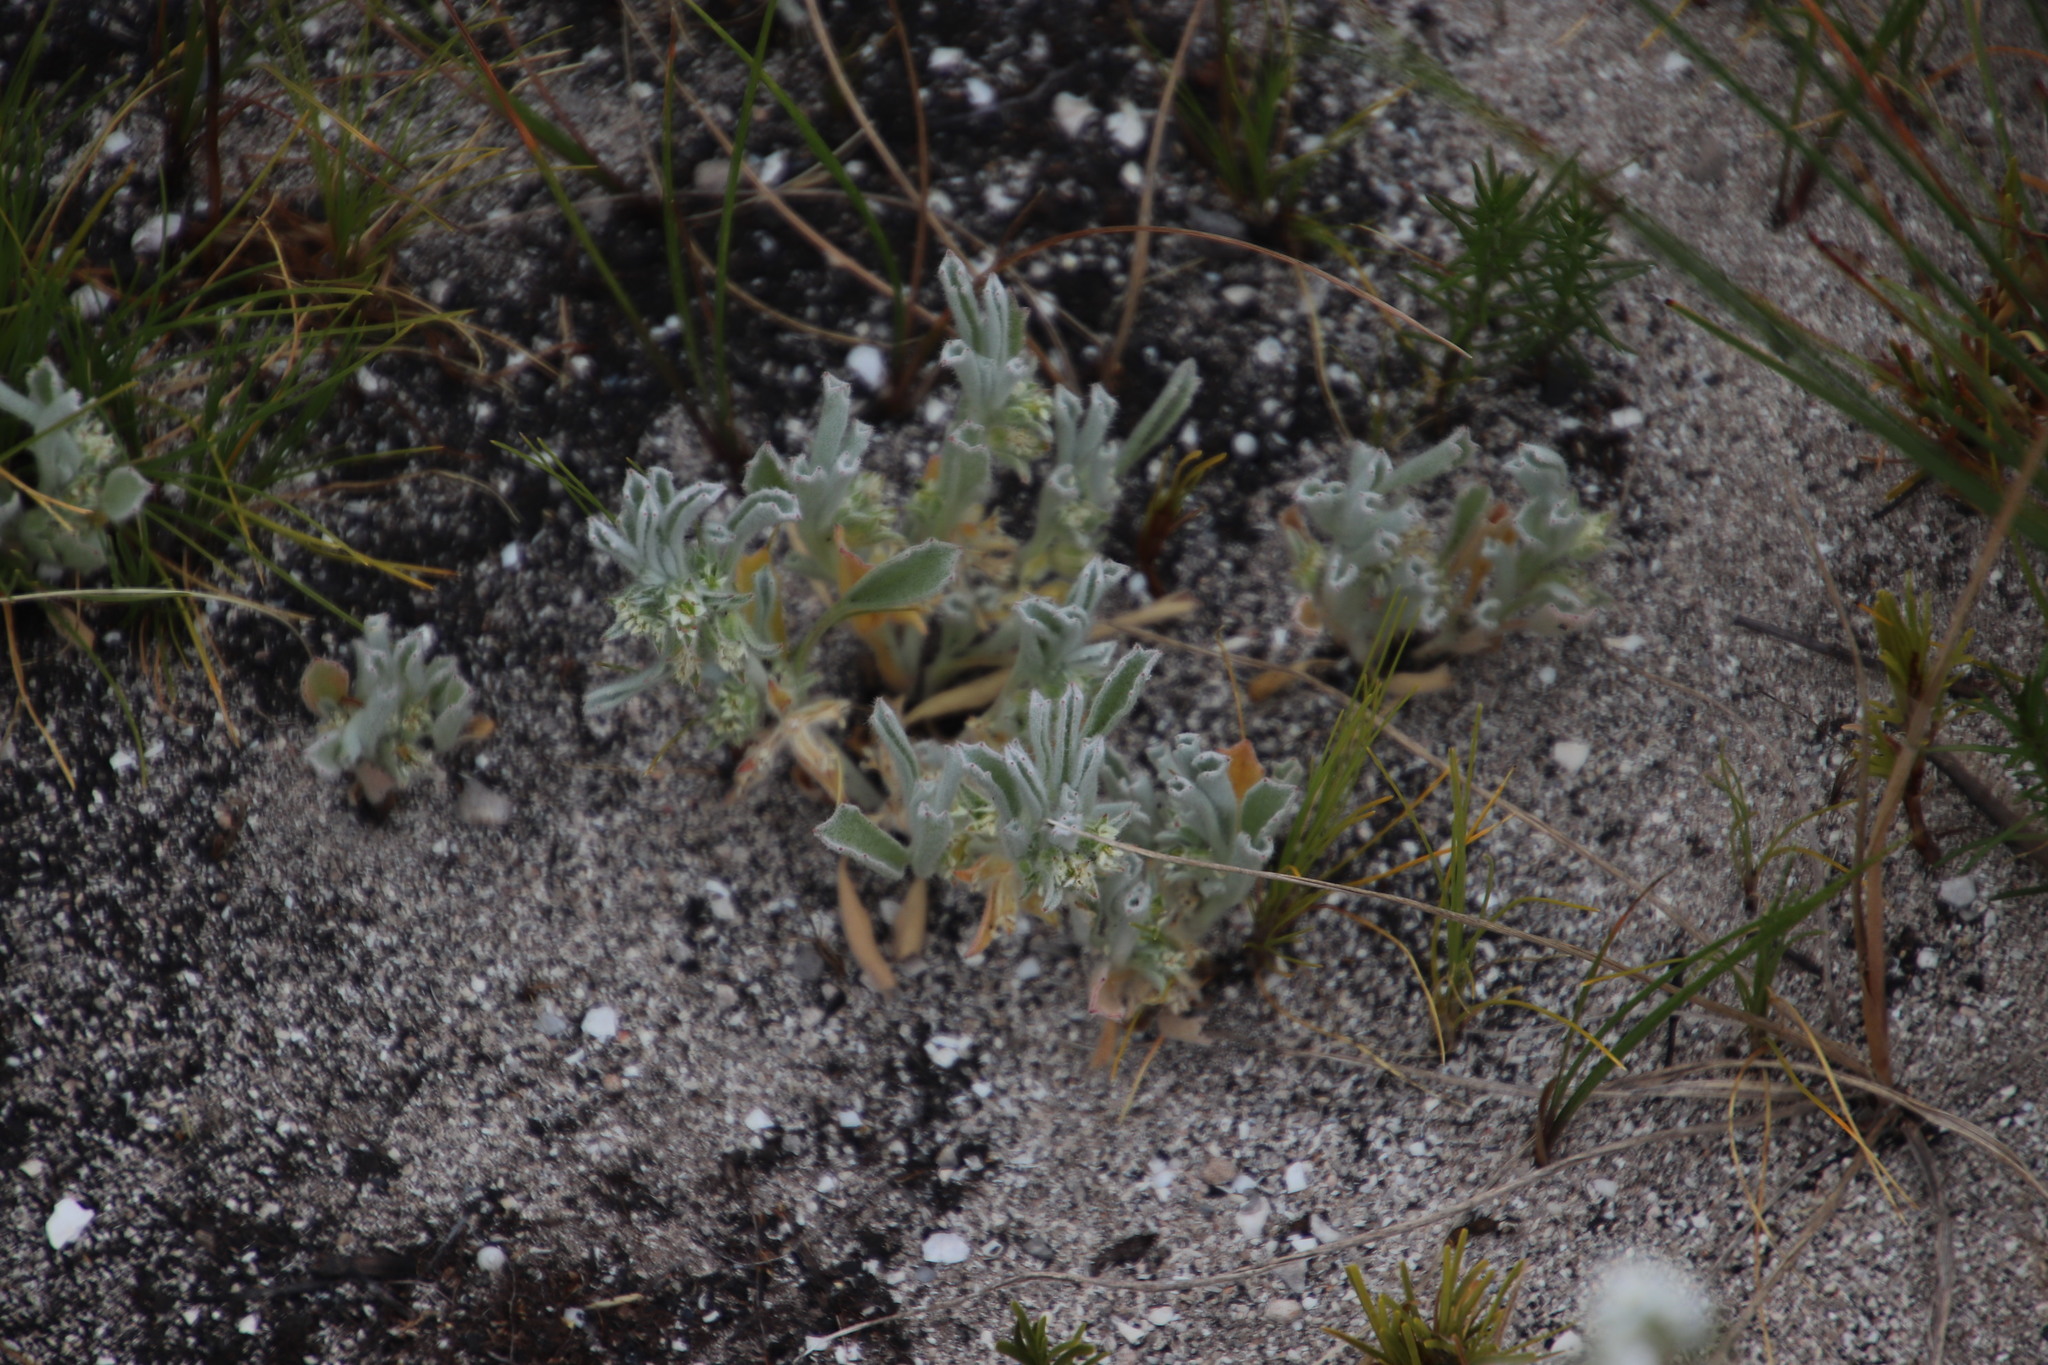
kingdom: Plantae
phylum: Tracheophyta
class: Magnoliopsida
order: Apiales
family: Apiaceae
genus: Centella
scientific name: Centella tridentata
